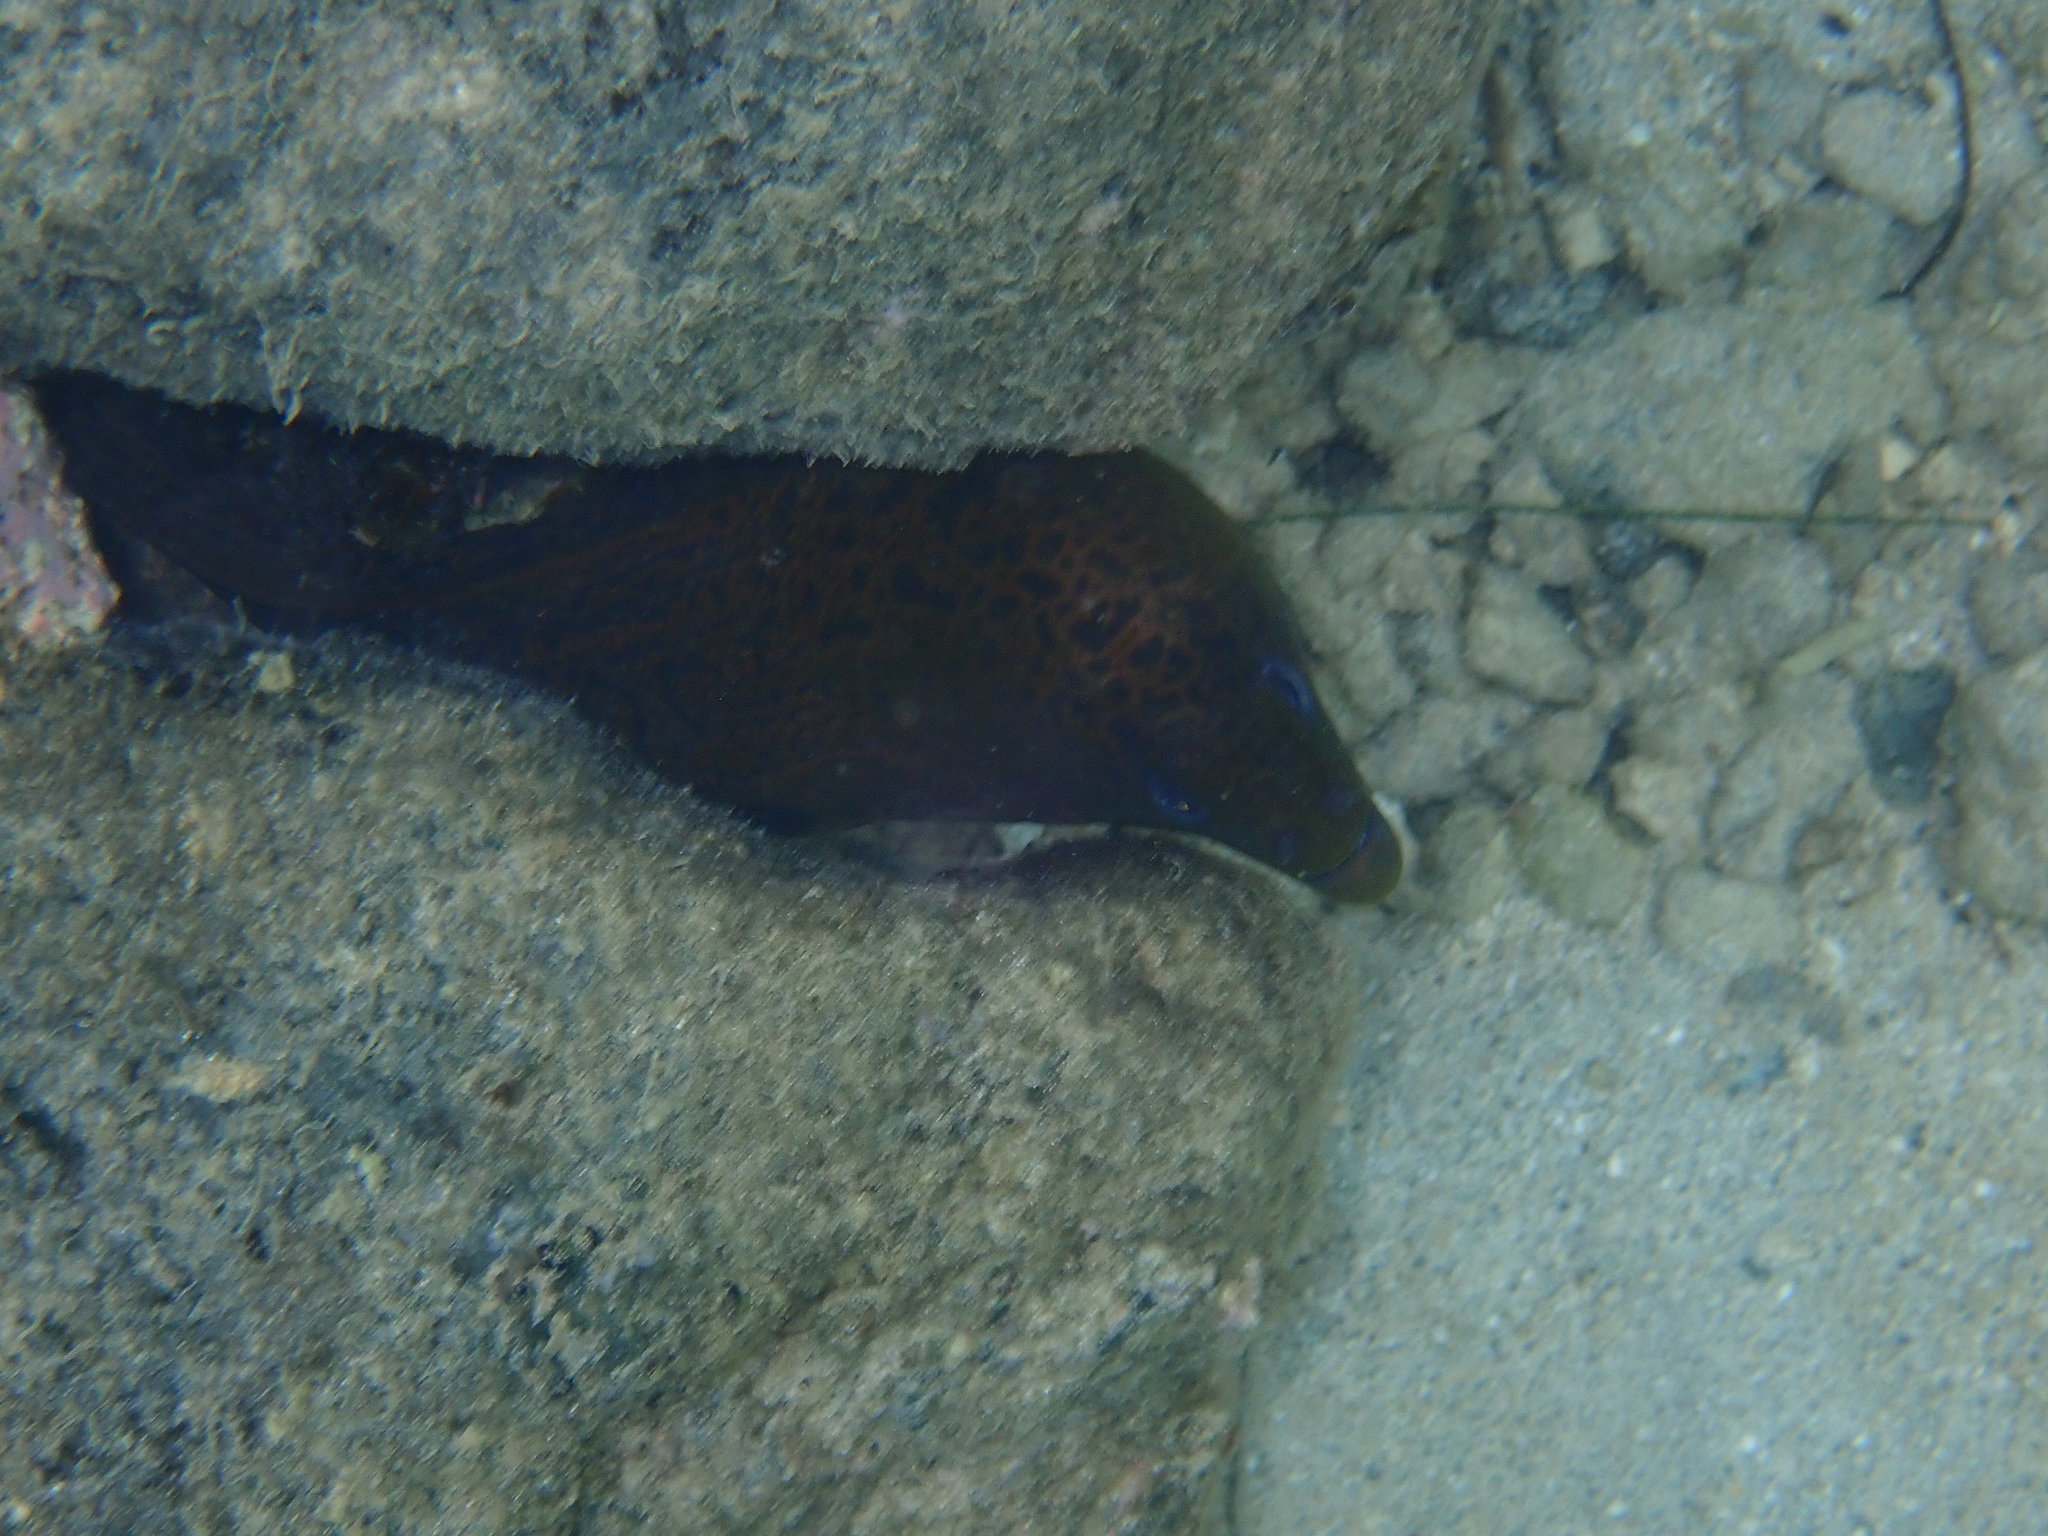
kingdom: Animalia
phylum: Chordata
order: Anguilliformes
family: Muraenidae
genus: Gymnothorax
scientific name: Gymnothorax javanicus
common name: Giant moray
